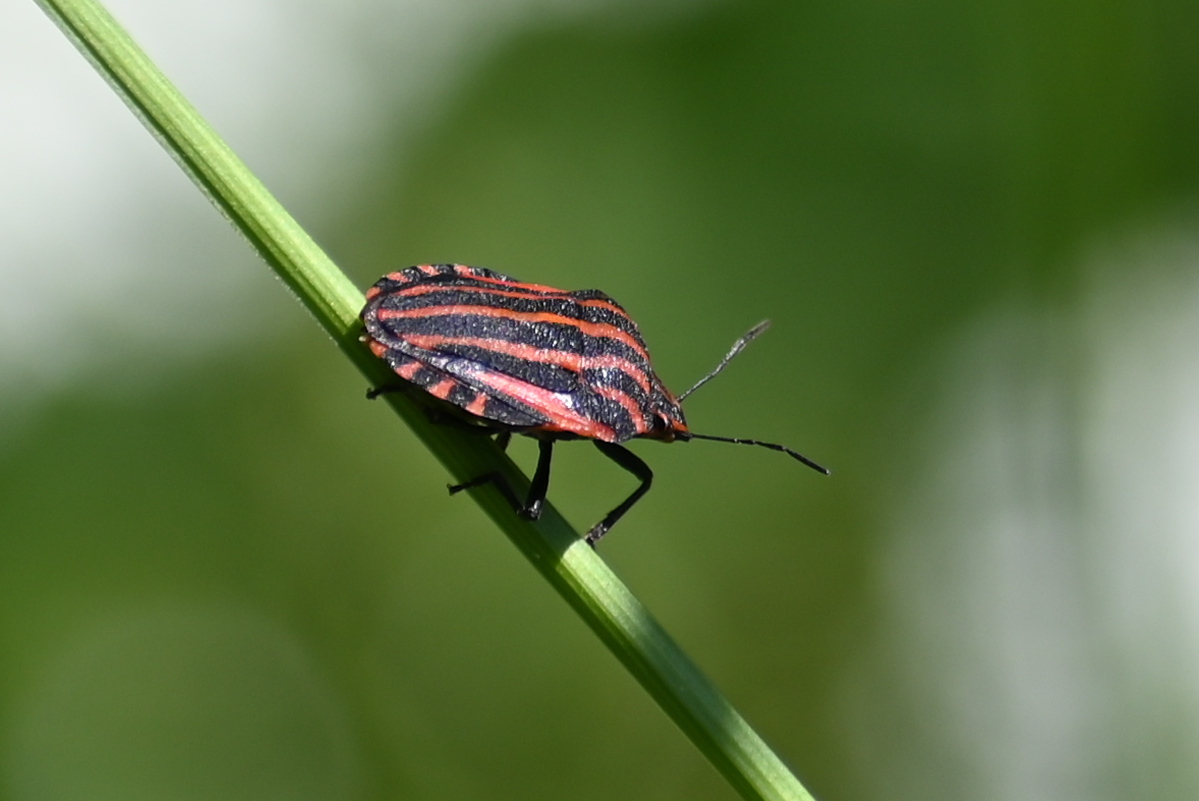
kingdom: Animalia
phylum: Arthropoda
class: Insecta
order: Hemiptera
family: Pentatomidae
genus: Graphosoma
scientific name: Graphosoma italicum
